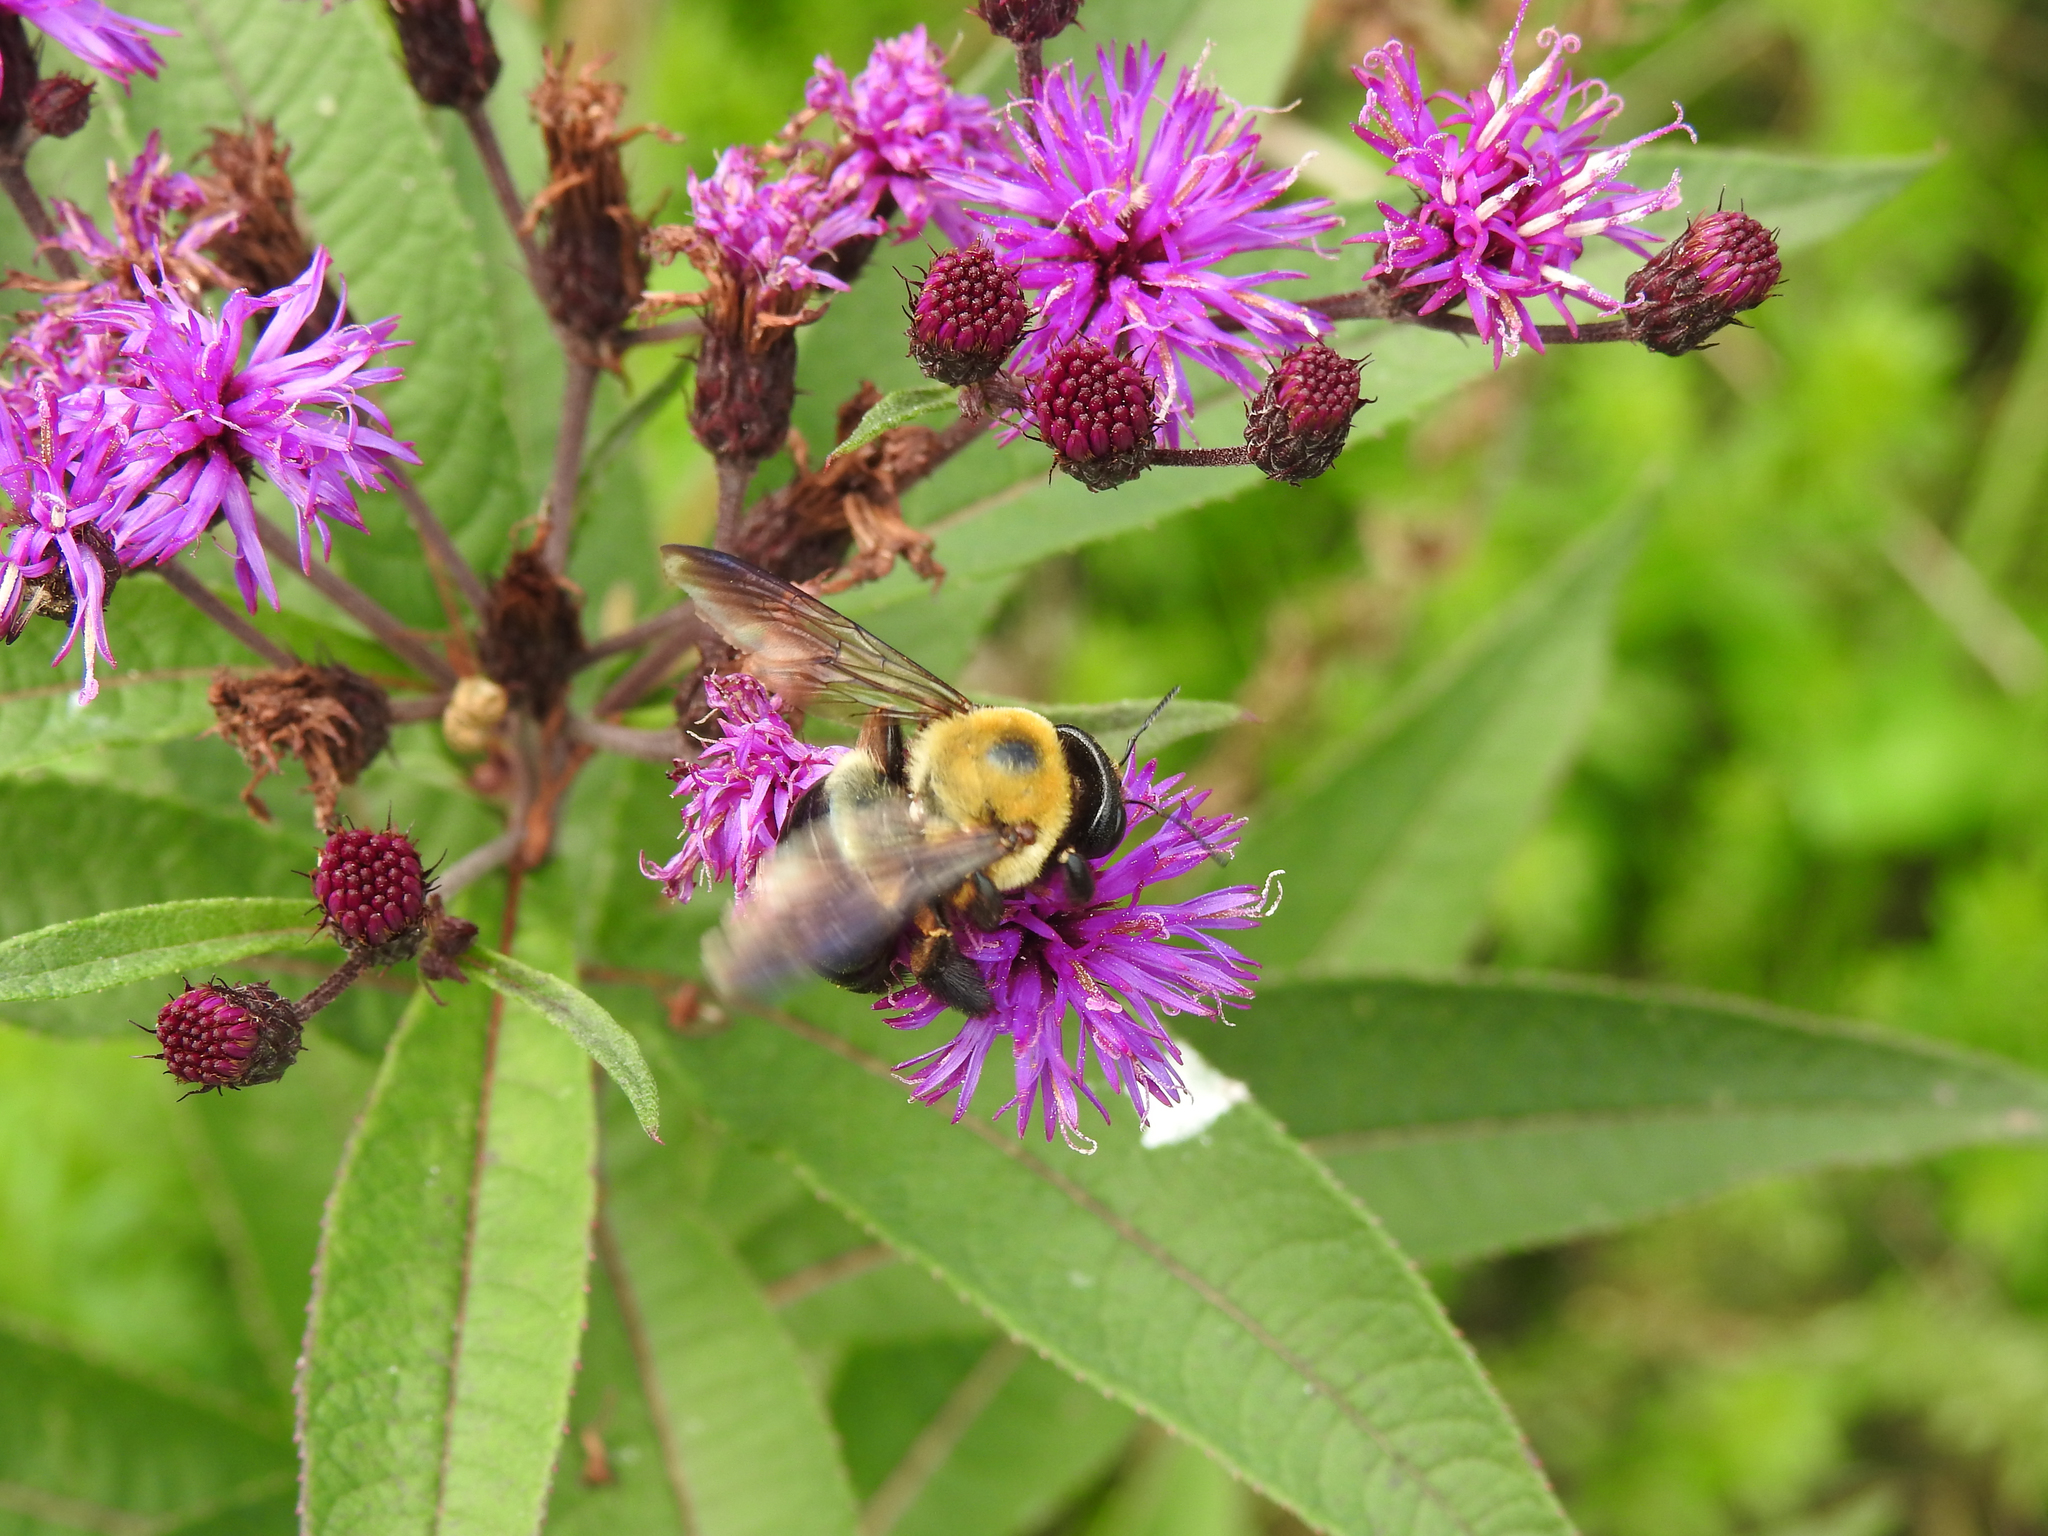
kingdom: Animalia
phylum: Arthropoda
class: Insecta
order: Hymenoptera
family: Apidae
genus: Xylocopa
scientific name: Xylocopa virginica
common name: Carpenter bee
